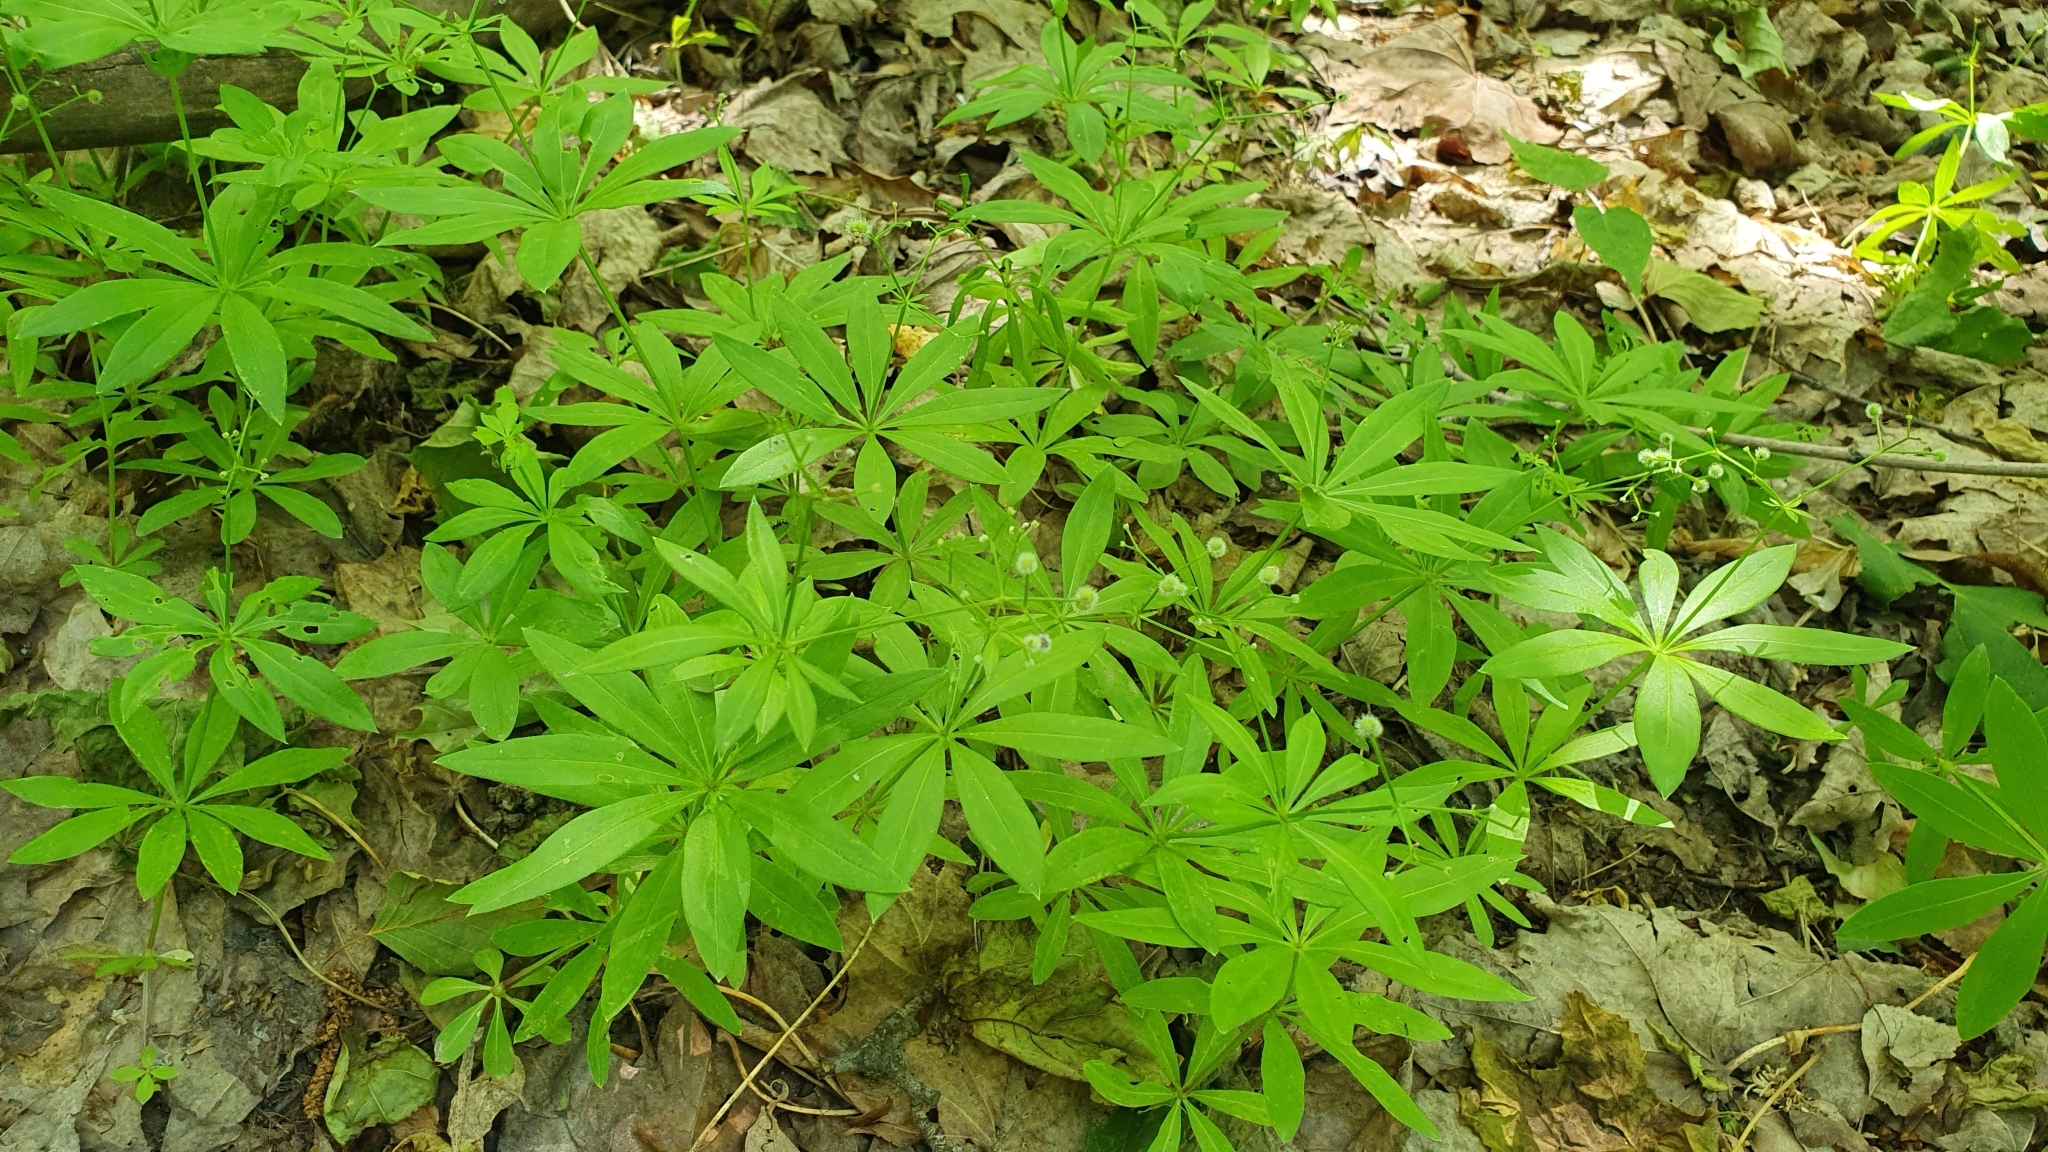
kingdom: Plantae
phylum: Tracheophyta
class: Magnoliopsida
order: Gentianales
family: Rubiaceae
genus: Galium
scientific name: Galium odoratum
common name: Sweet woodruff
